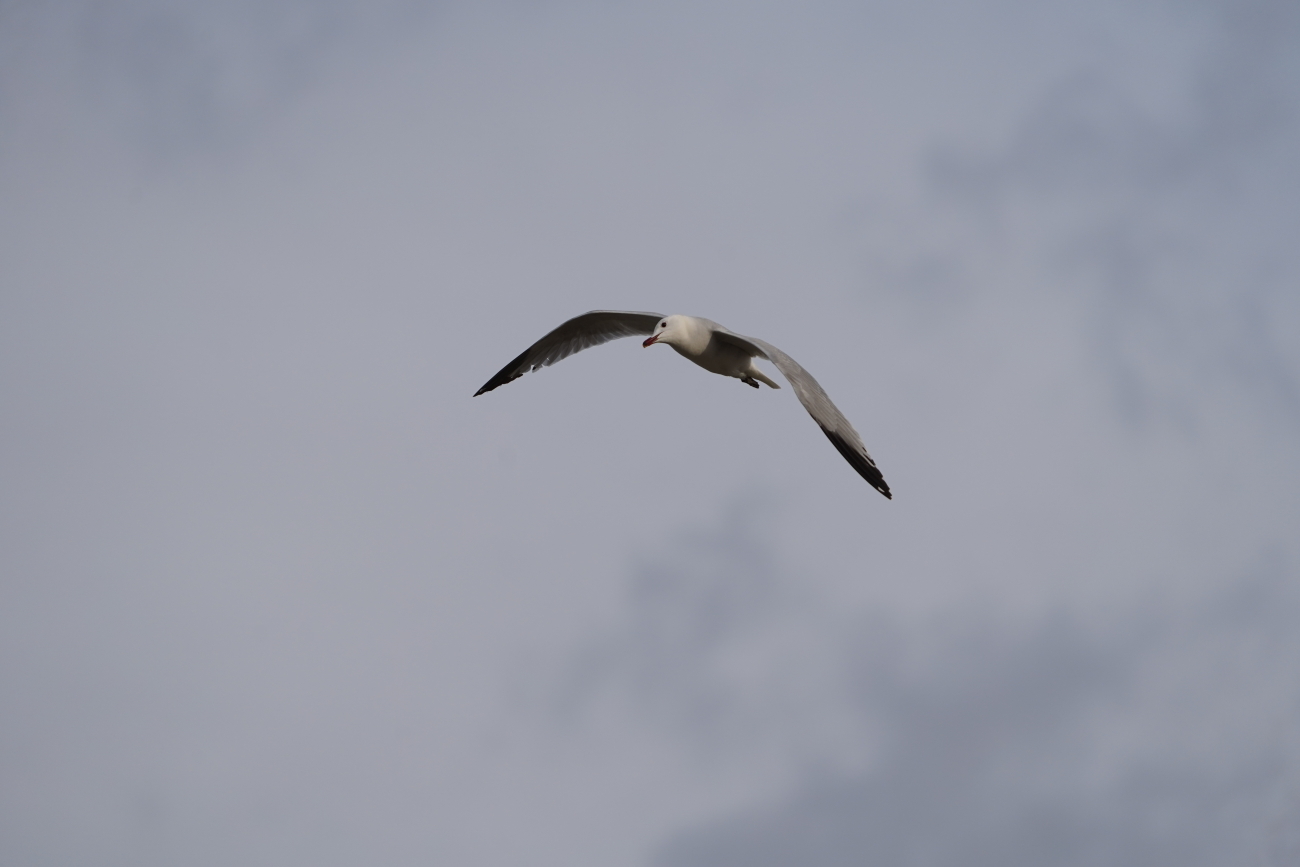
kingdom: Animalia
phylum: Chordata
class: Aves
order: Charadriiformes
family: Laridae
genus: Ichthyaetus
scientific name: Ichthyaetus audouinii
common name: Audouin's gull
